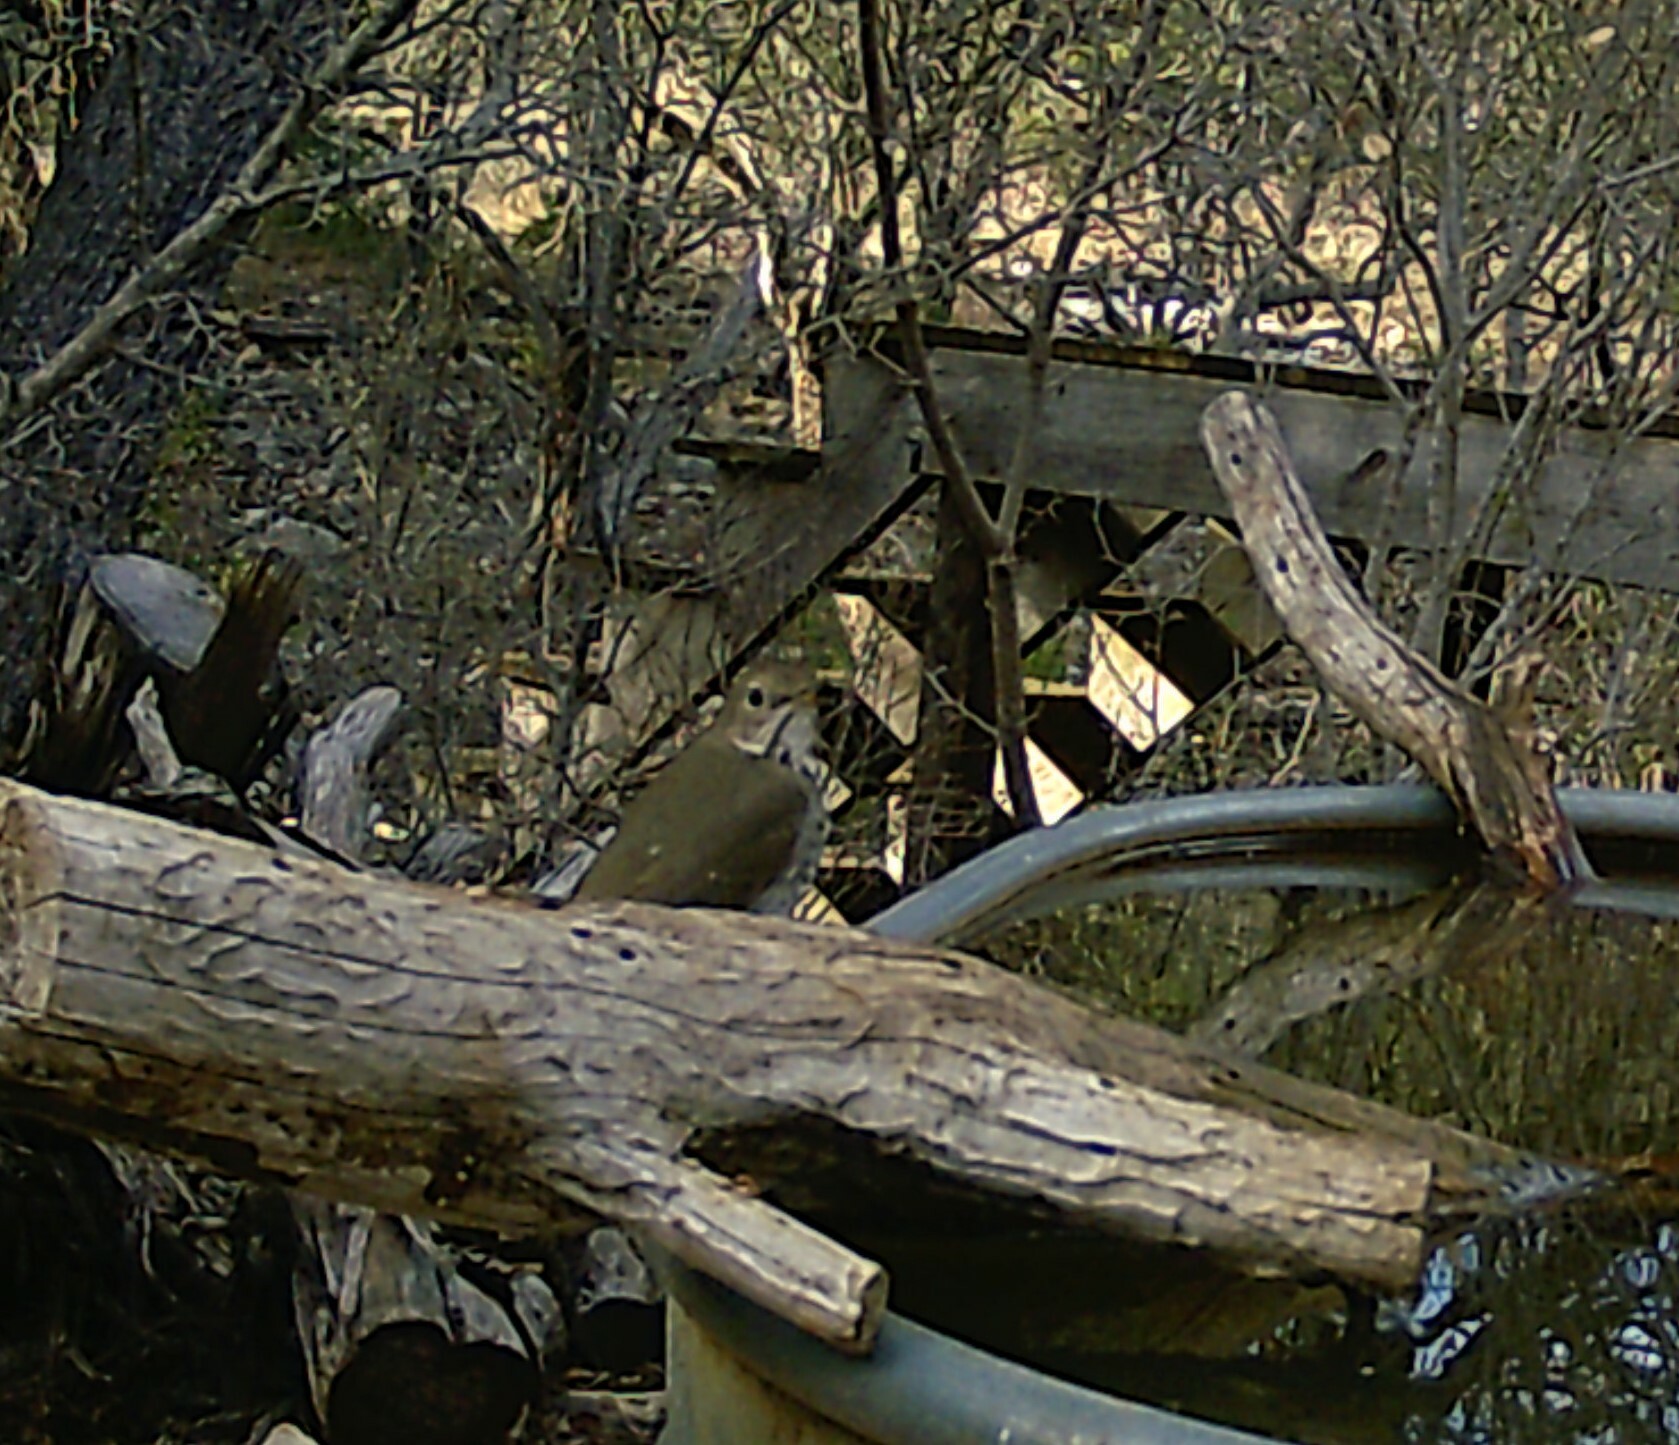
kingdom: Animalia
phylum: Chordata
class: Aves
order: Passeriformes
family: Turdidae
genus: Catharus
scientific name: Catharus guttatus
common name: Hermit thrush
